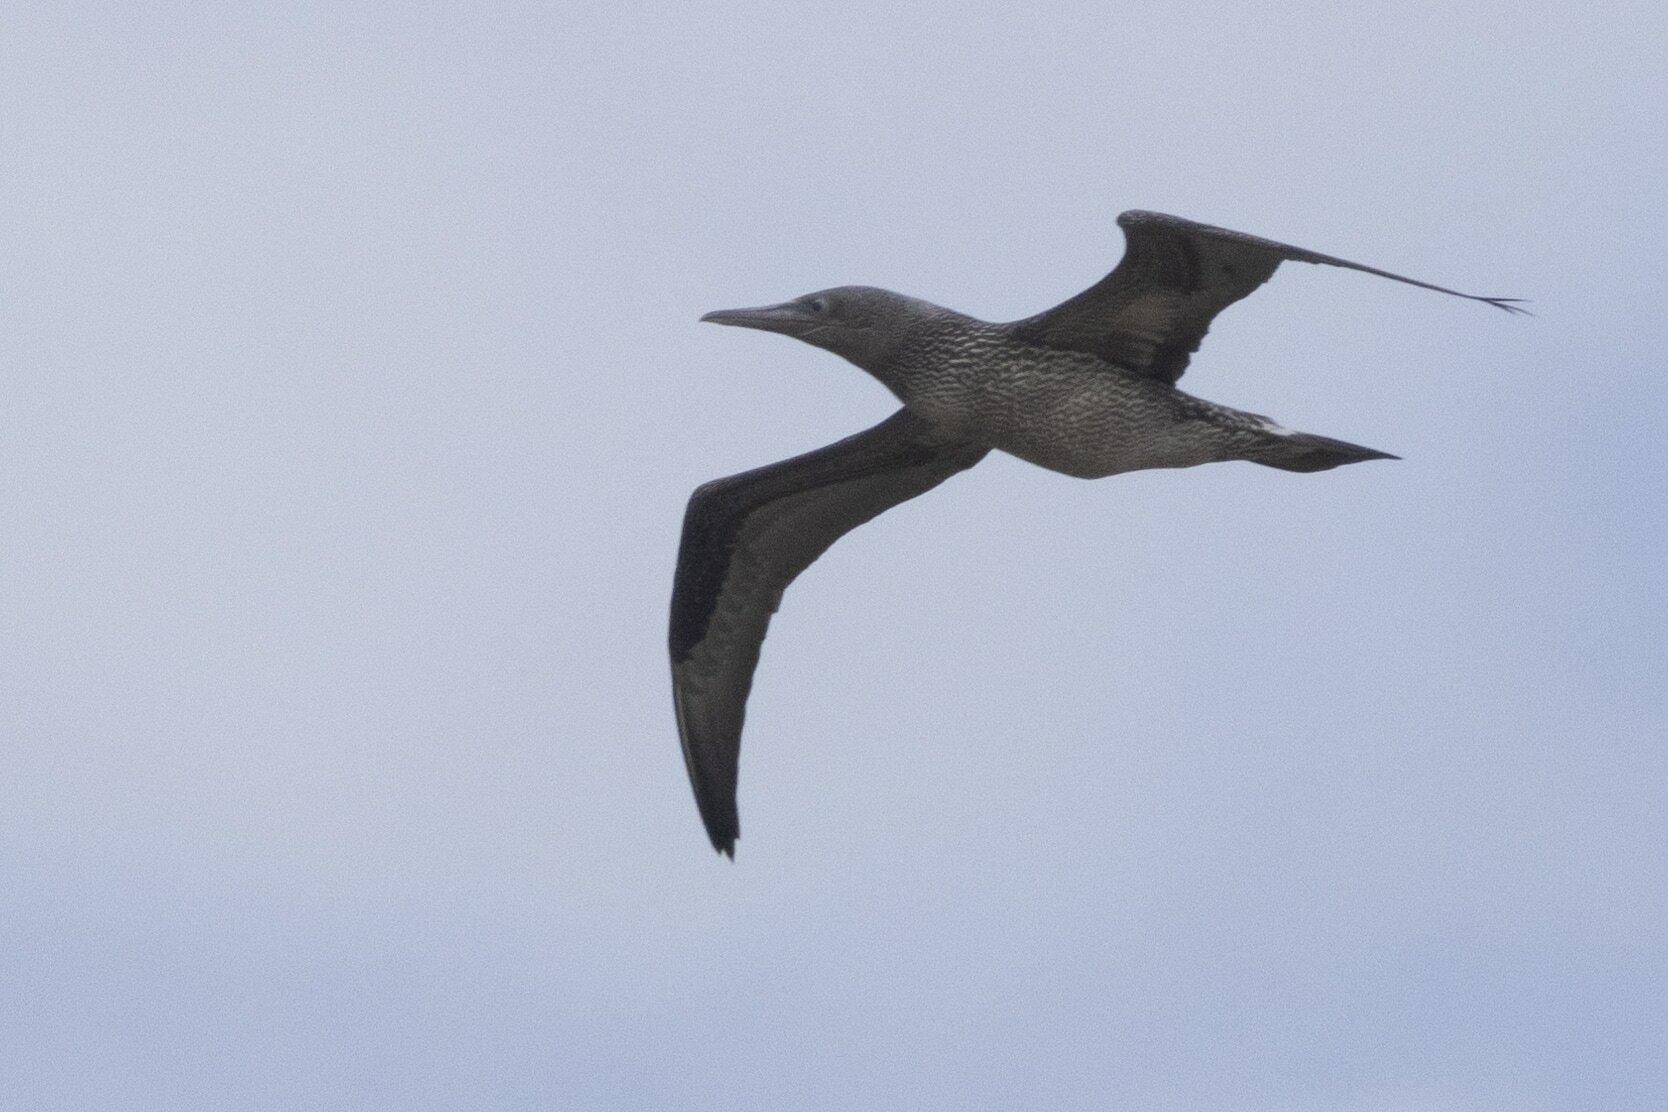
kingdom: Animalia
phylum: Chordata
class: Aves
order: Suliformes
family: Sulidae
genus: Morus
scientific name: Morus bassanus
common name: Northern gannet
